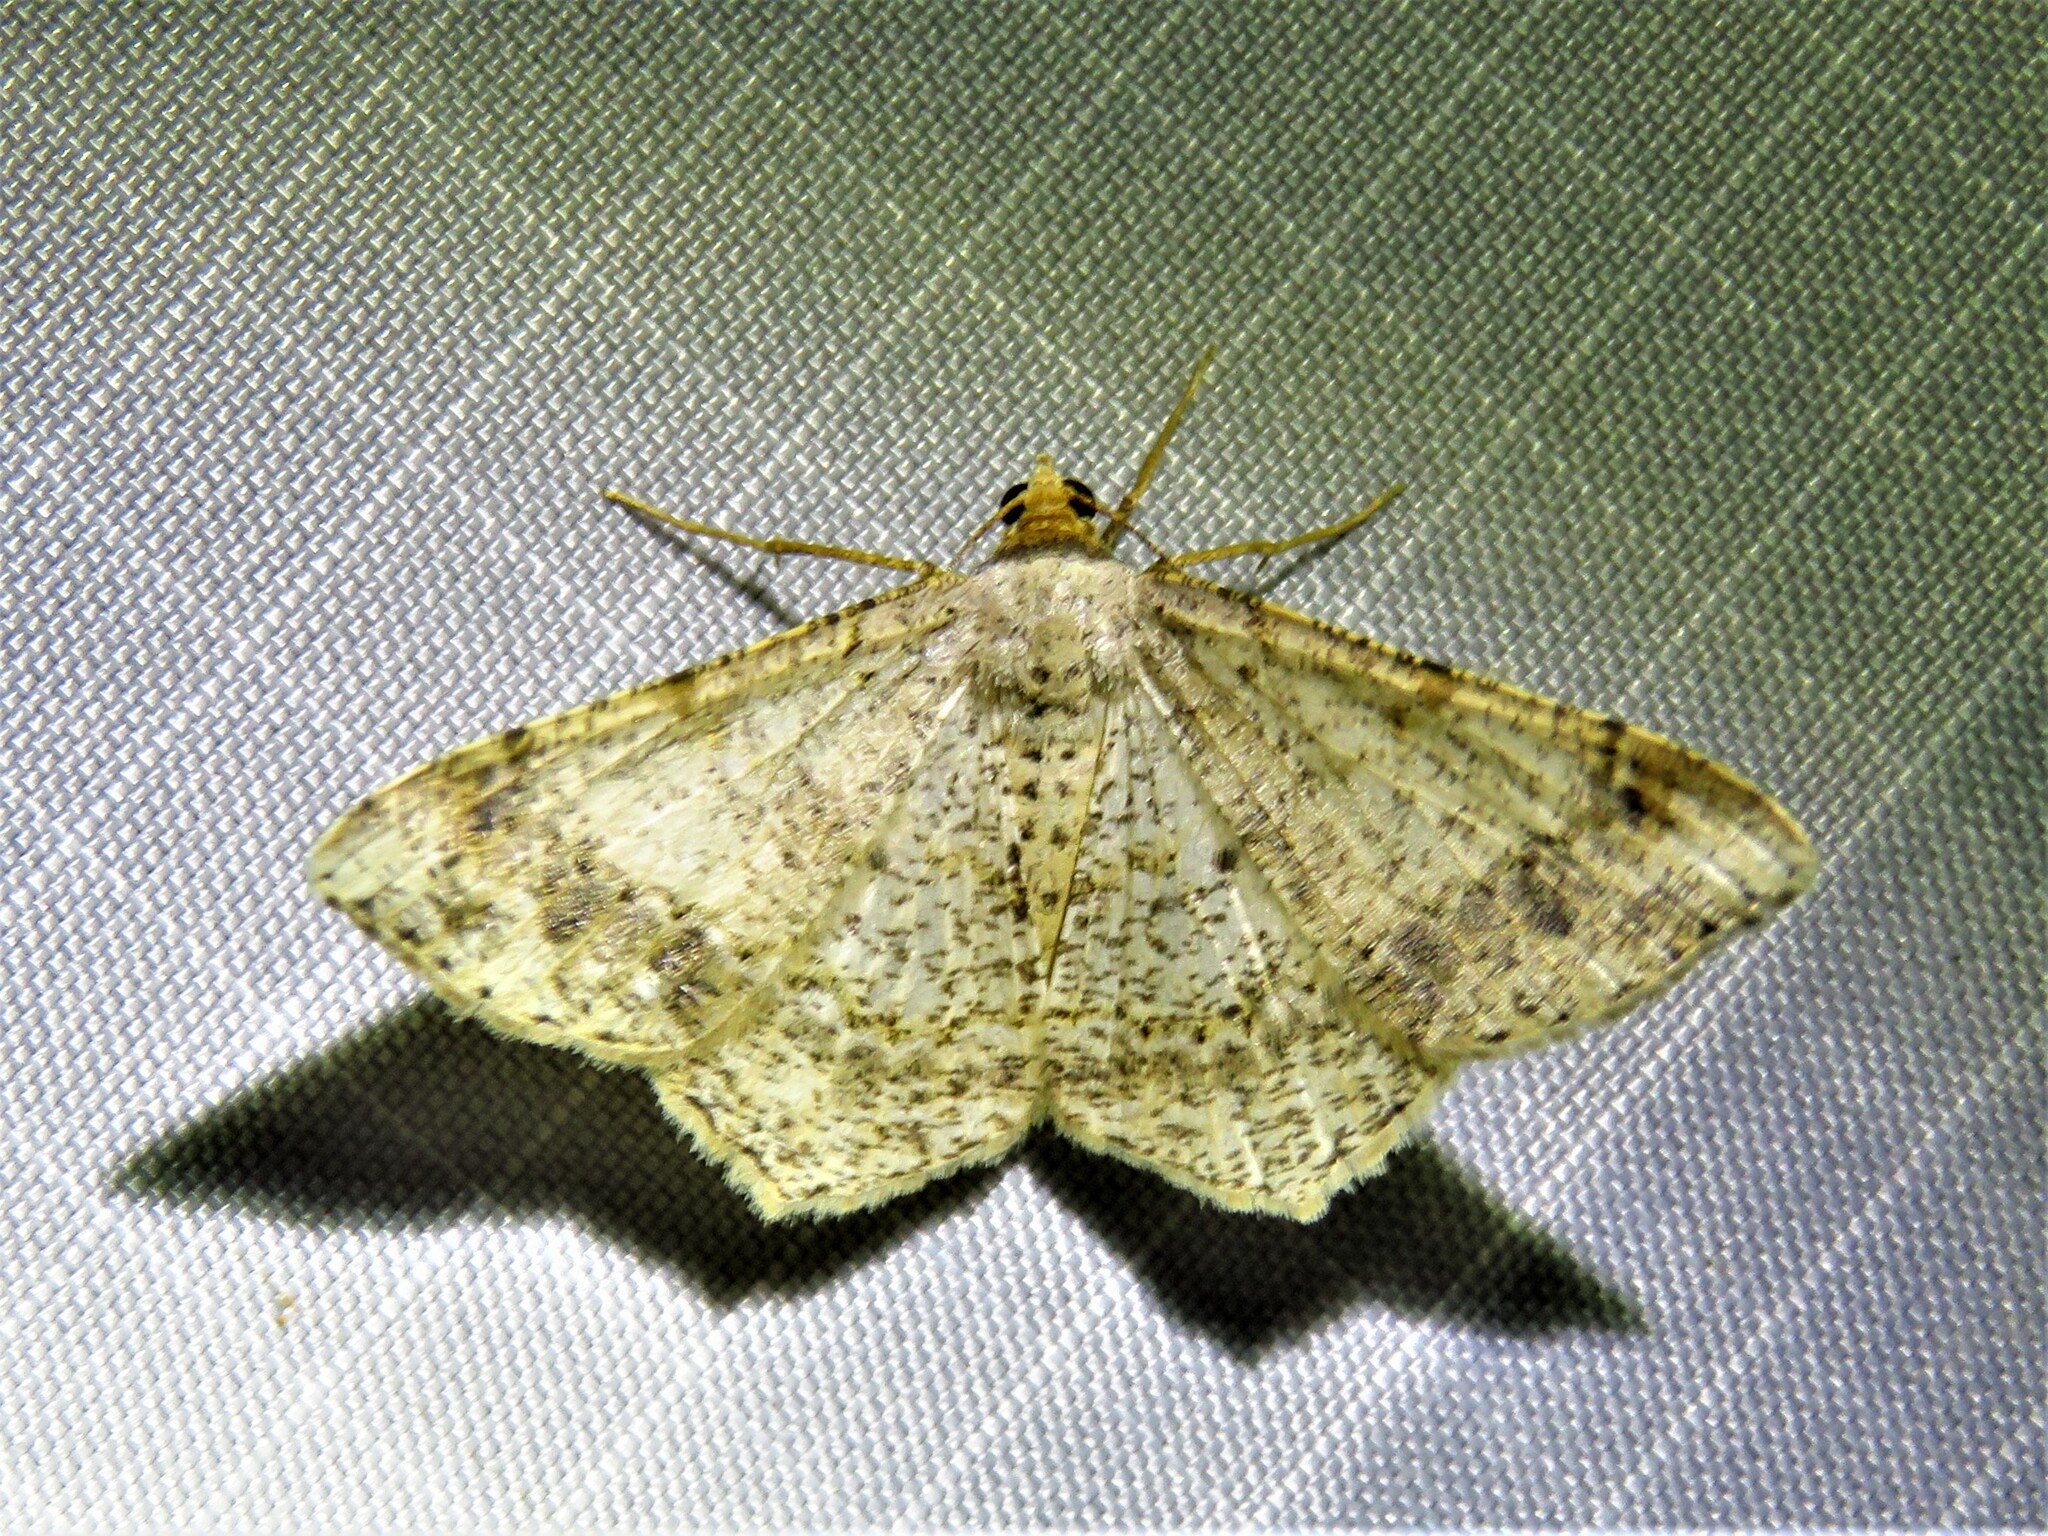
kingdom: Animalia
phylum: Arthropoda
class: Insecta
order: Lepidoptera
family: Geometridae
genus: Macaria
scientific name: Macaria abydata
